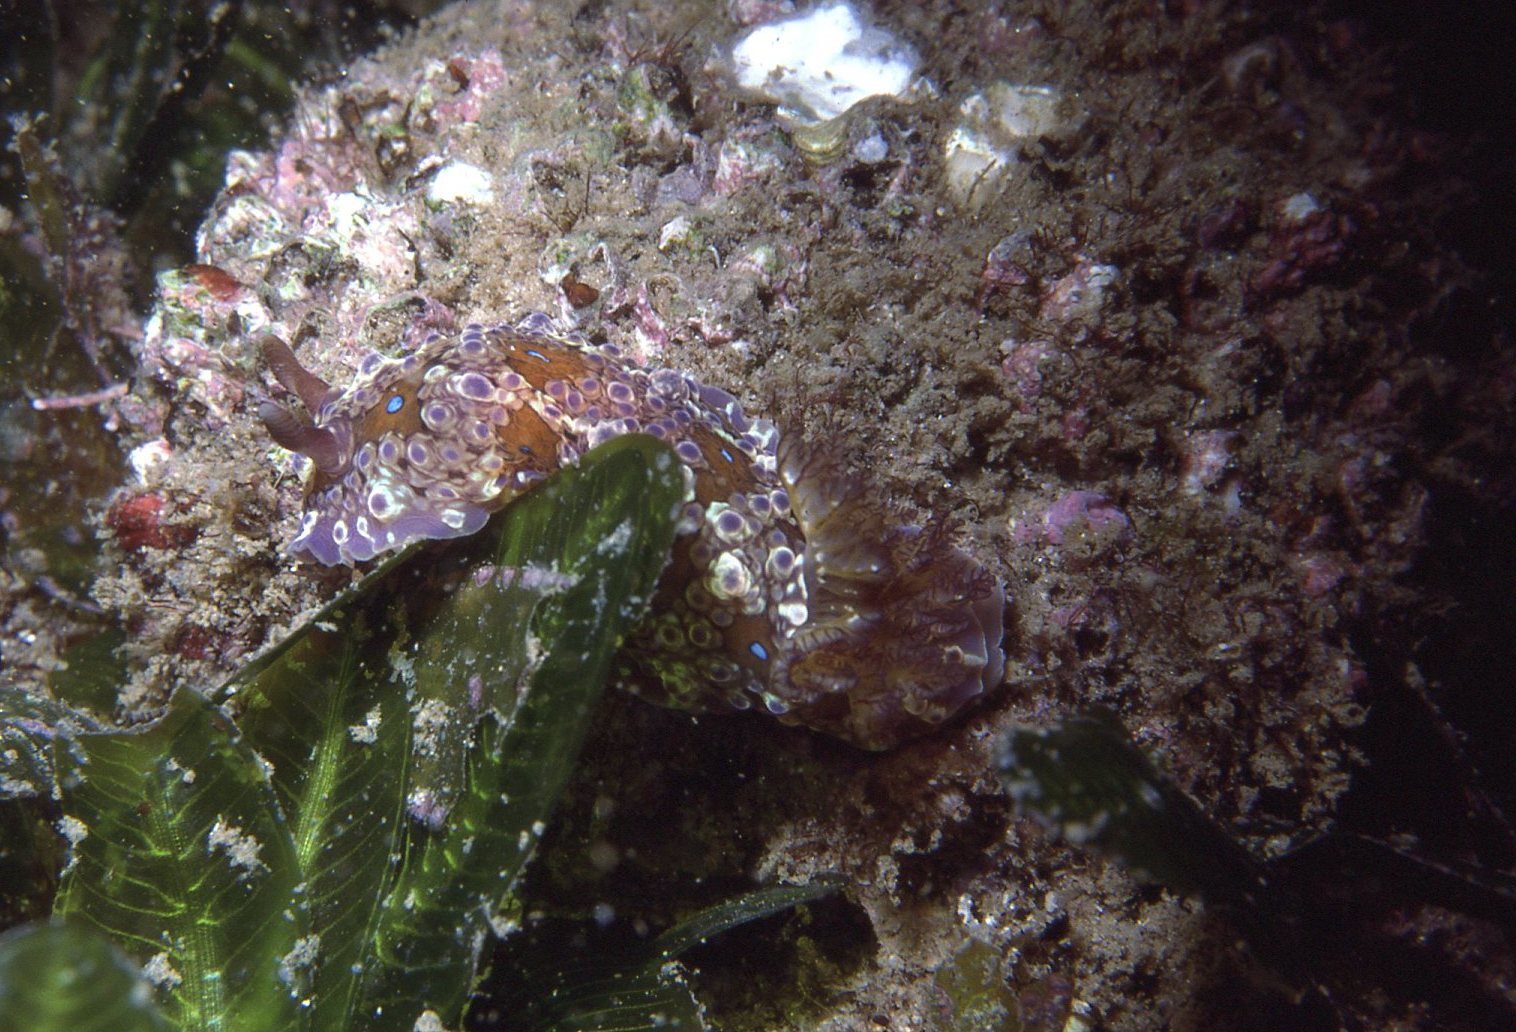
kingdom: Animalia
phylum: Mollusca
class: Gastropoda
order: Nudibranchia
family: Dendrodorididae
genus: Dendrodoris
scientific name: Dendrodoris krusensternii
